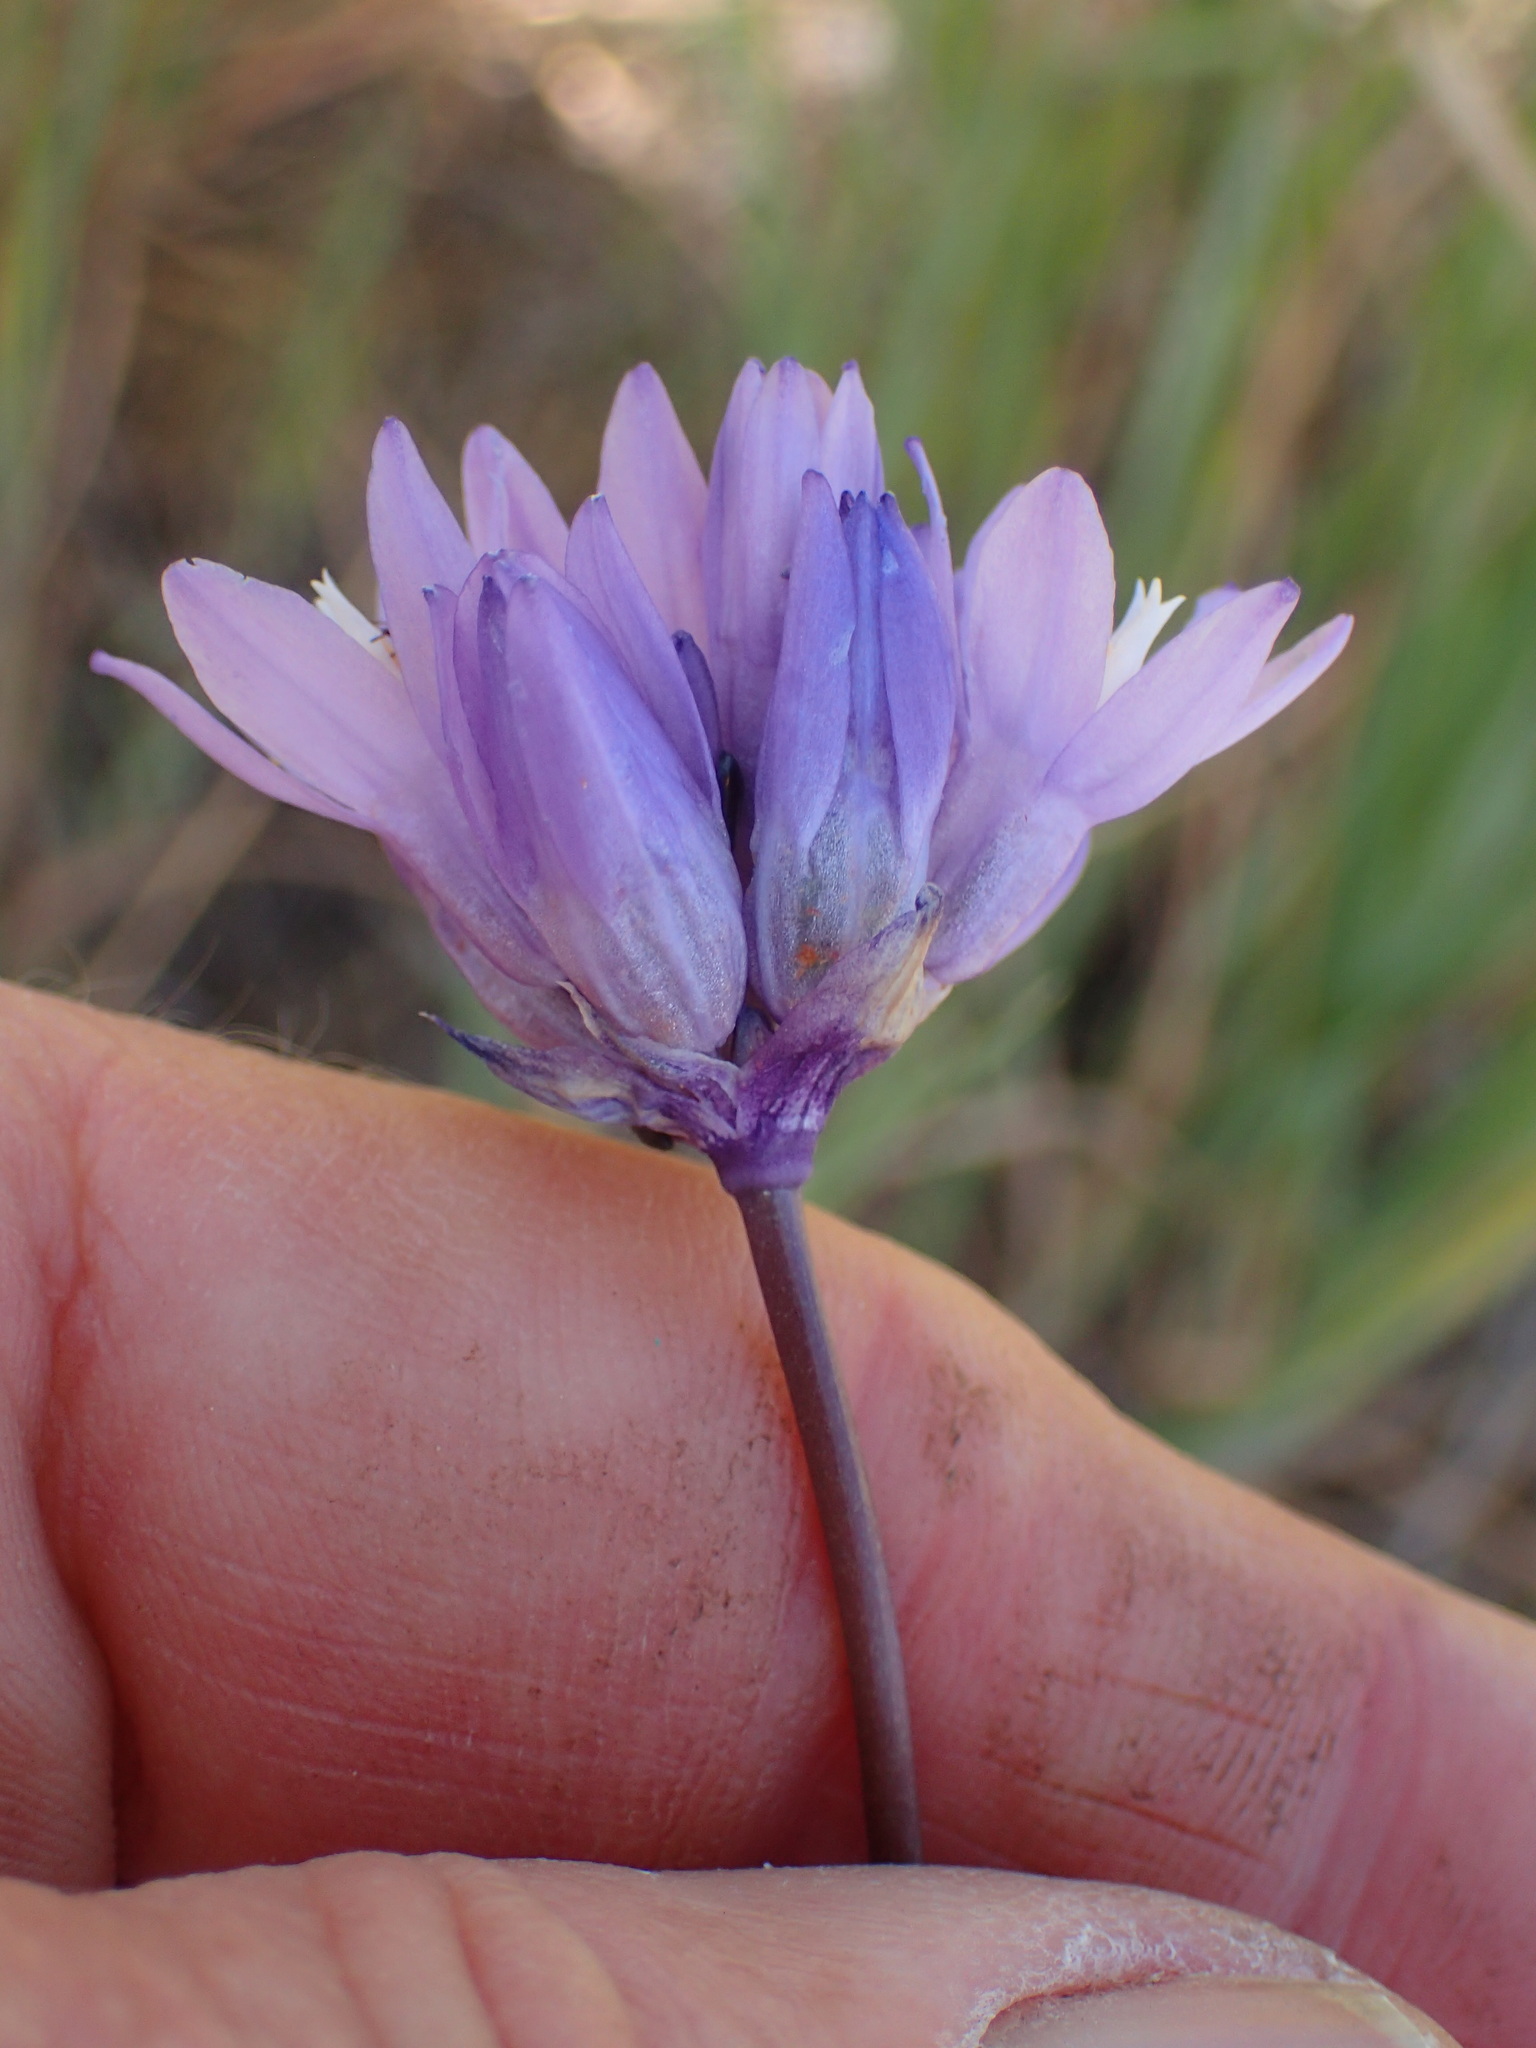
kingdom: Plantae
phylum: Tracheophyta
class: Liliopsida
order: Asparagales
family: Asparagaceae
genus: Dipterostemon
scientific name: Dipterostemon capitatus
